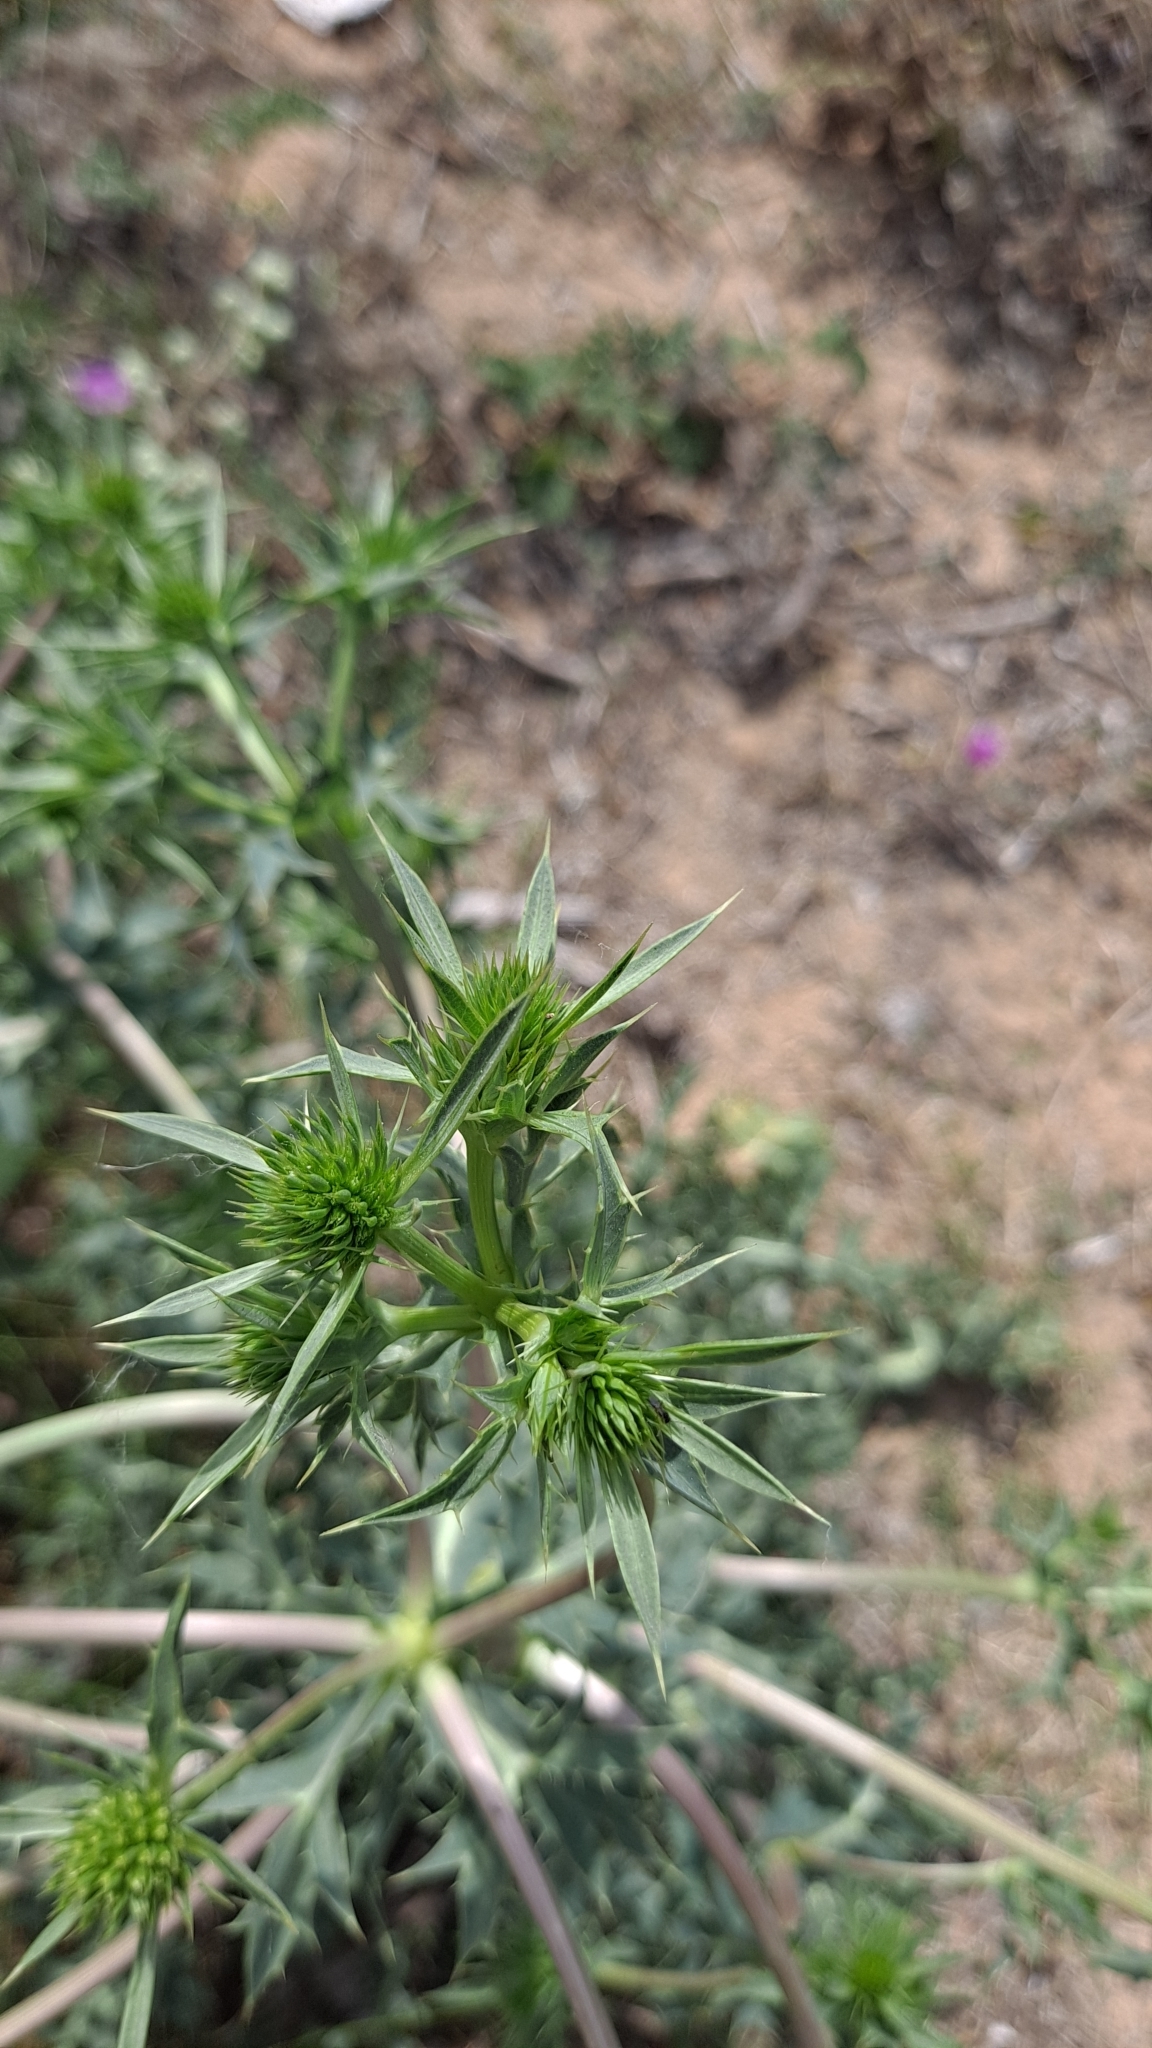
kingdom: Plantae
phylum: Tracheophyta
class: Magnoliopsida
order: Apiales
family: Apiaceae
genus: Eryngium
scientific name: Eryngium campestre
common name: Field eryngo
